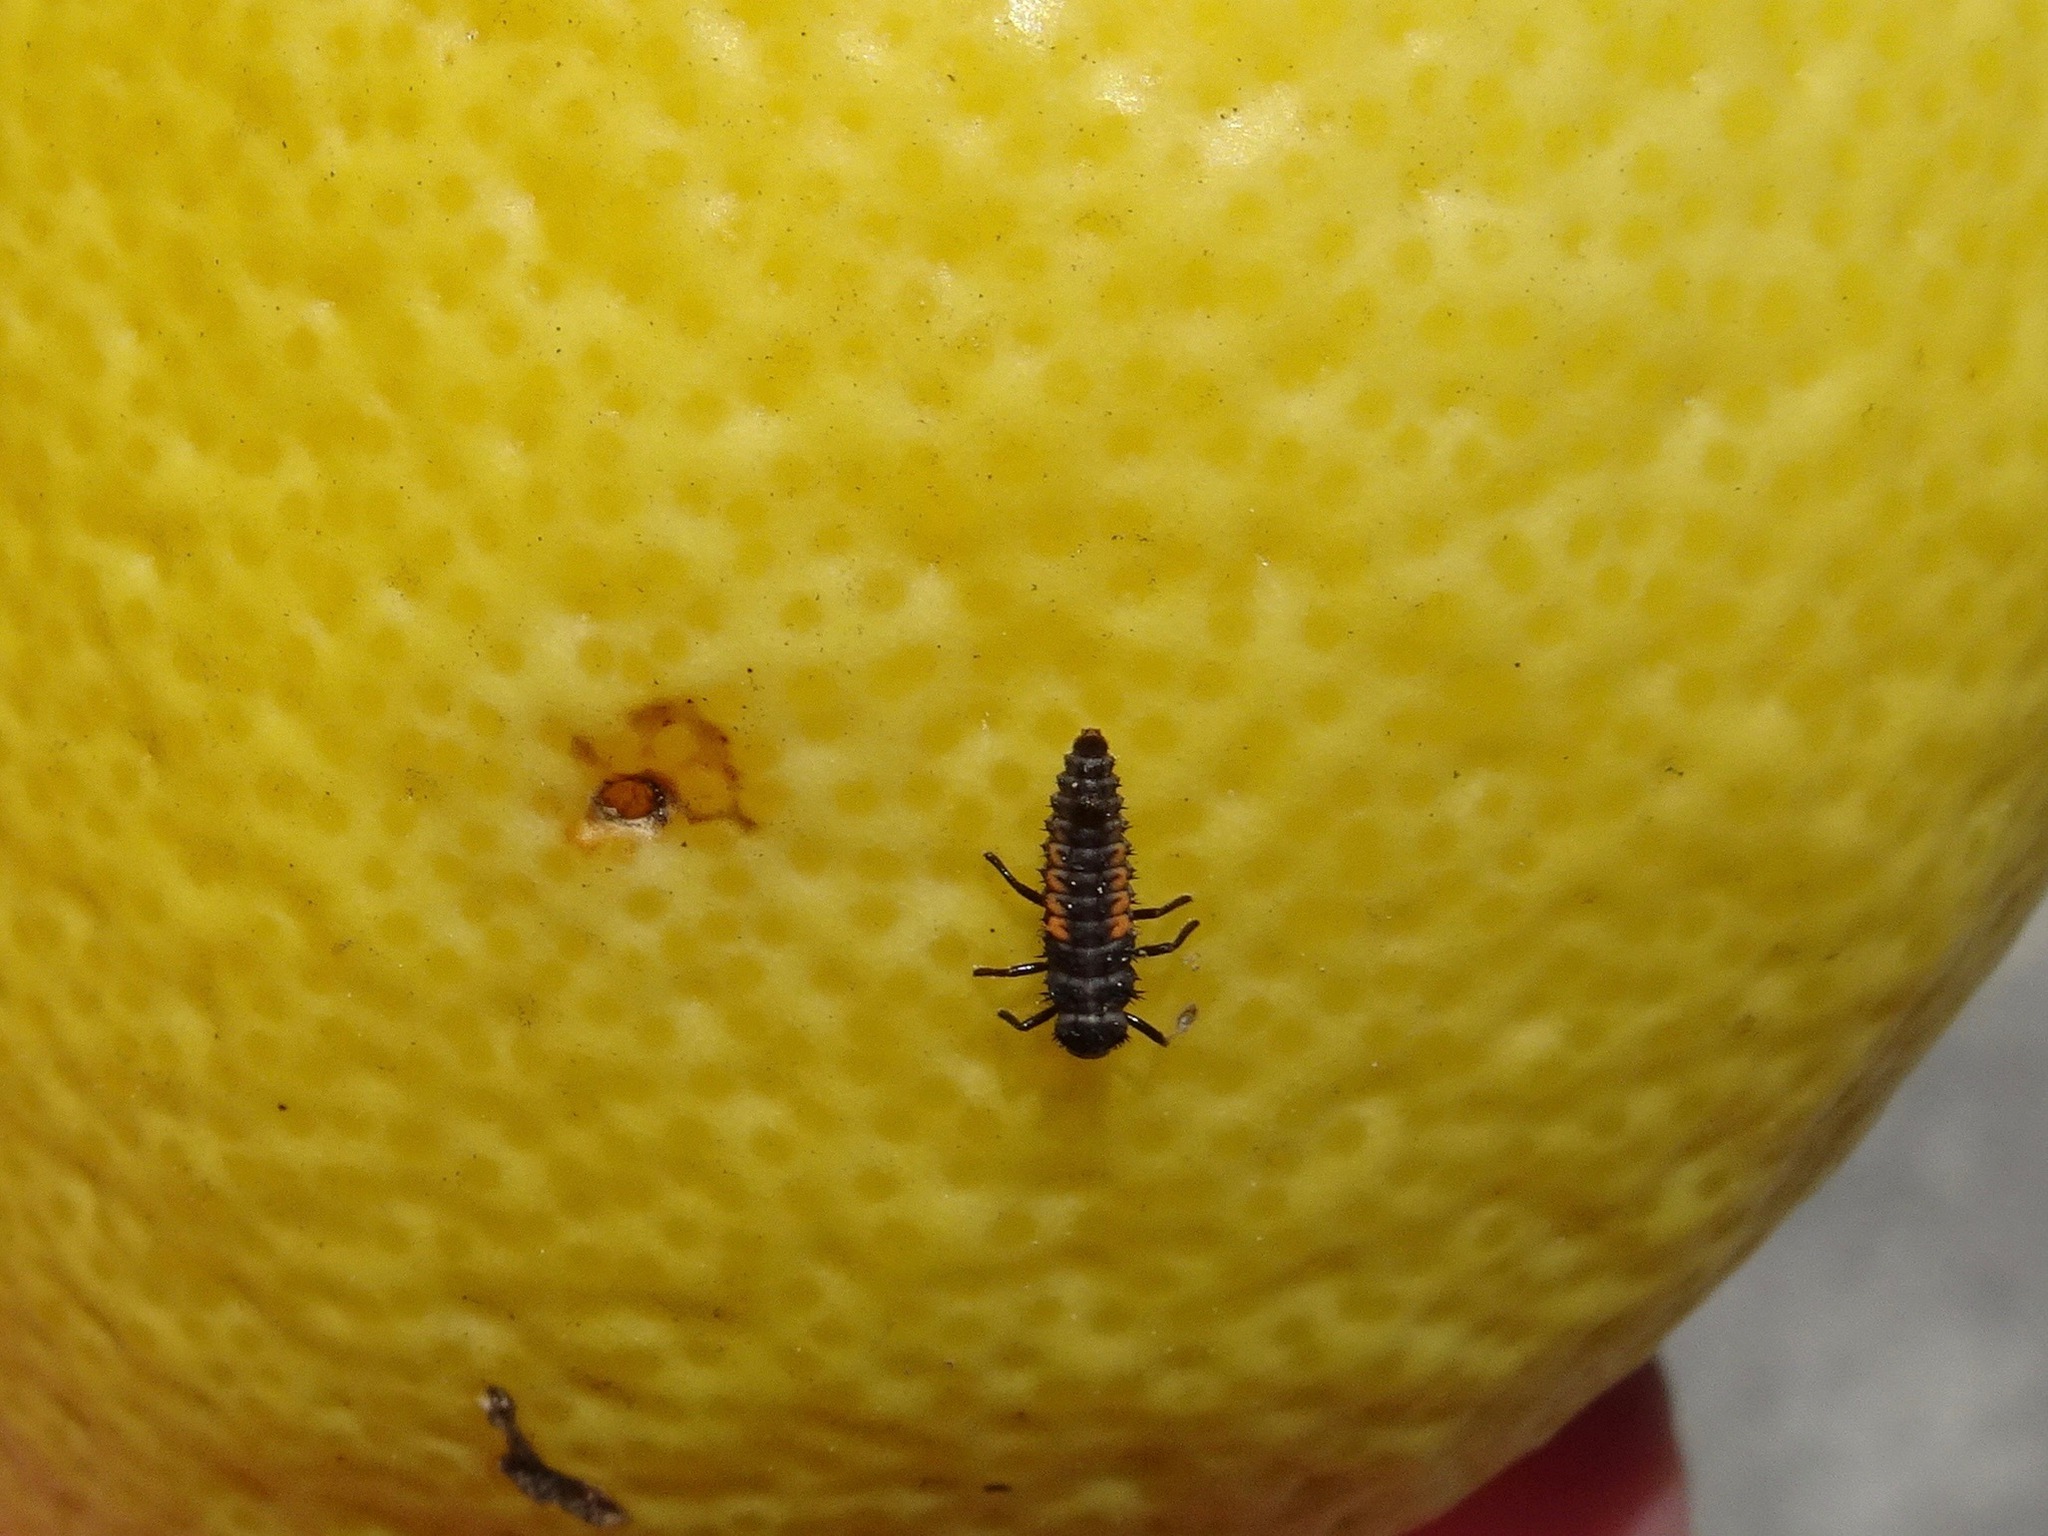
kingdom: Animalia
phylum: Arthropoda
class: Insecta
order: Coleoptera
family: Coccinellidae
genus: Harmonia
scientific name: Harmonia axyridis
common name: Harlequin ladybird
